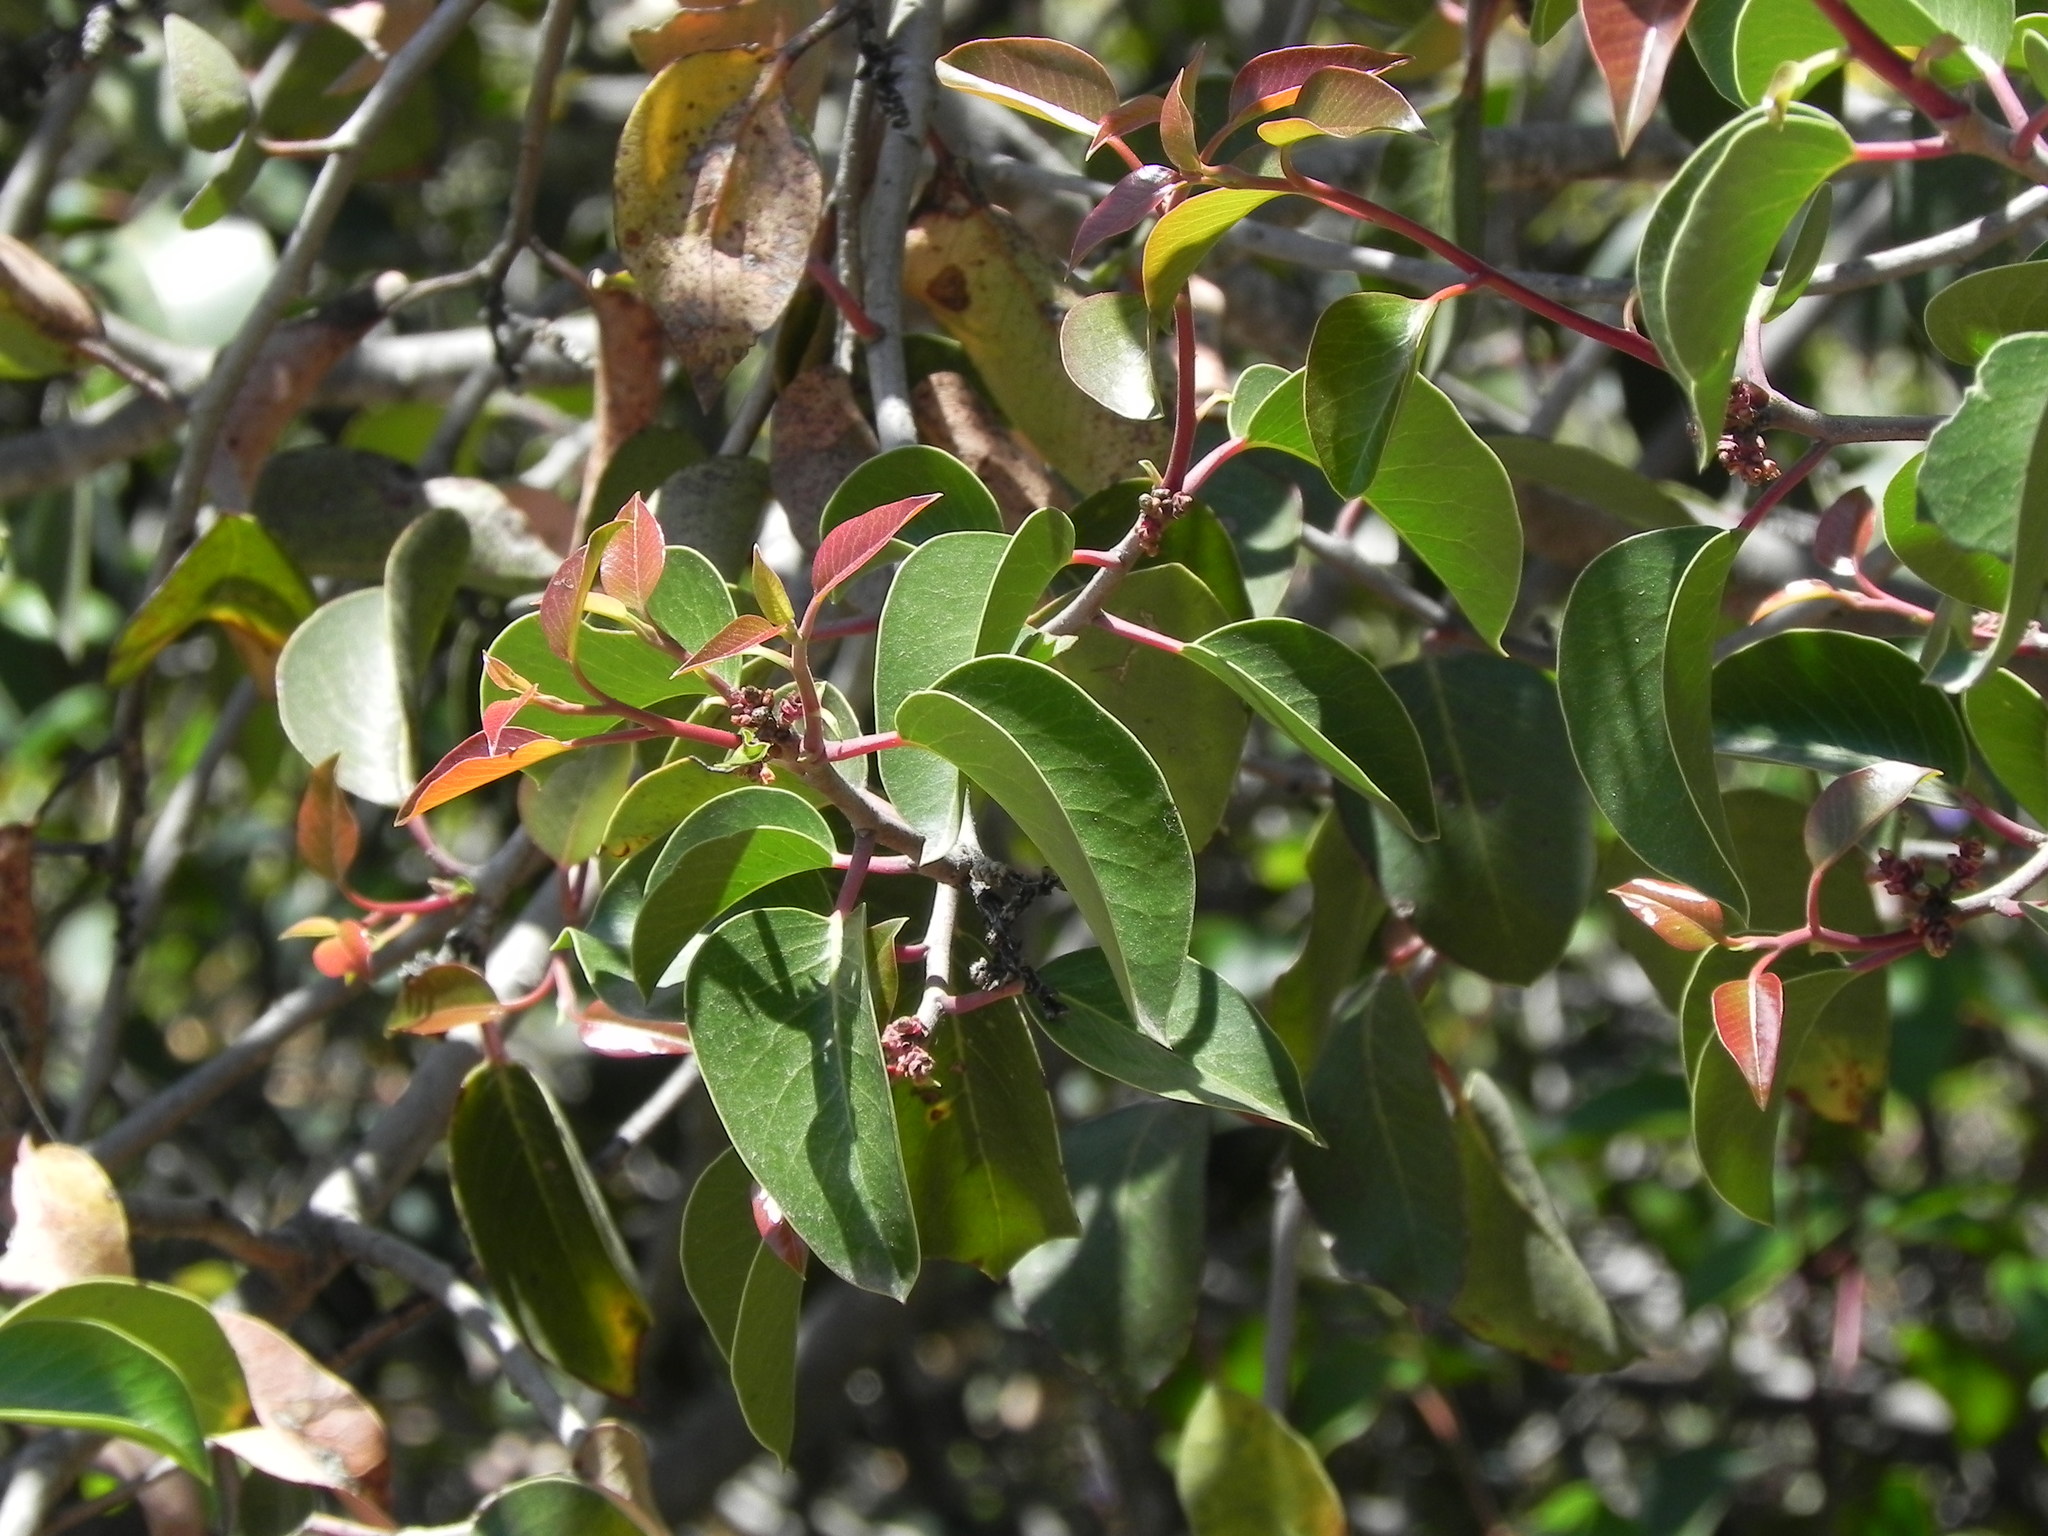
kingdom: Plantae
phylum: Tracheophyta
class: Magnoliopsida
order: Sapindales
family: Anacardiaceae
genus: Rhus
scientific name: Rhus ovata
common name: Sugar sumac
